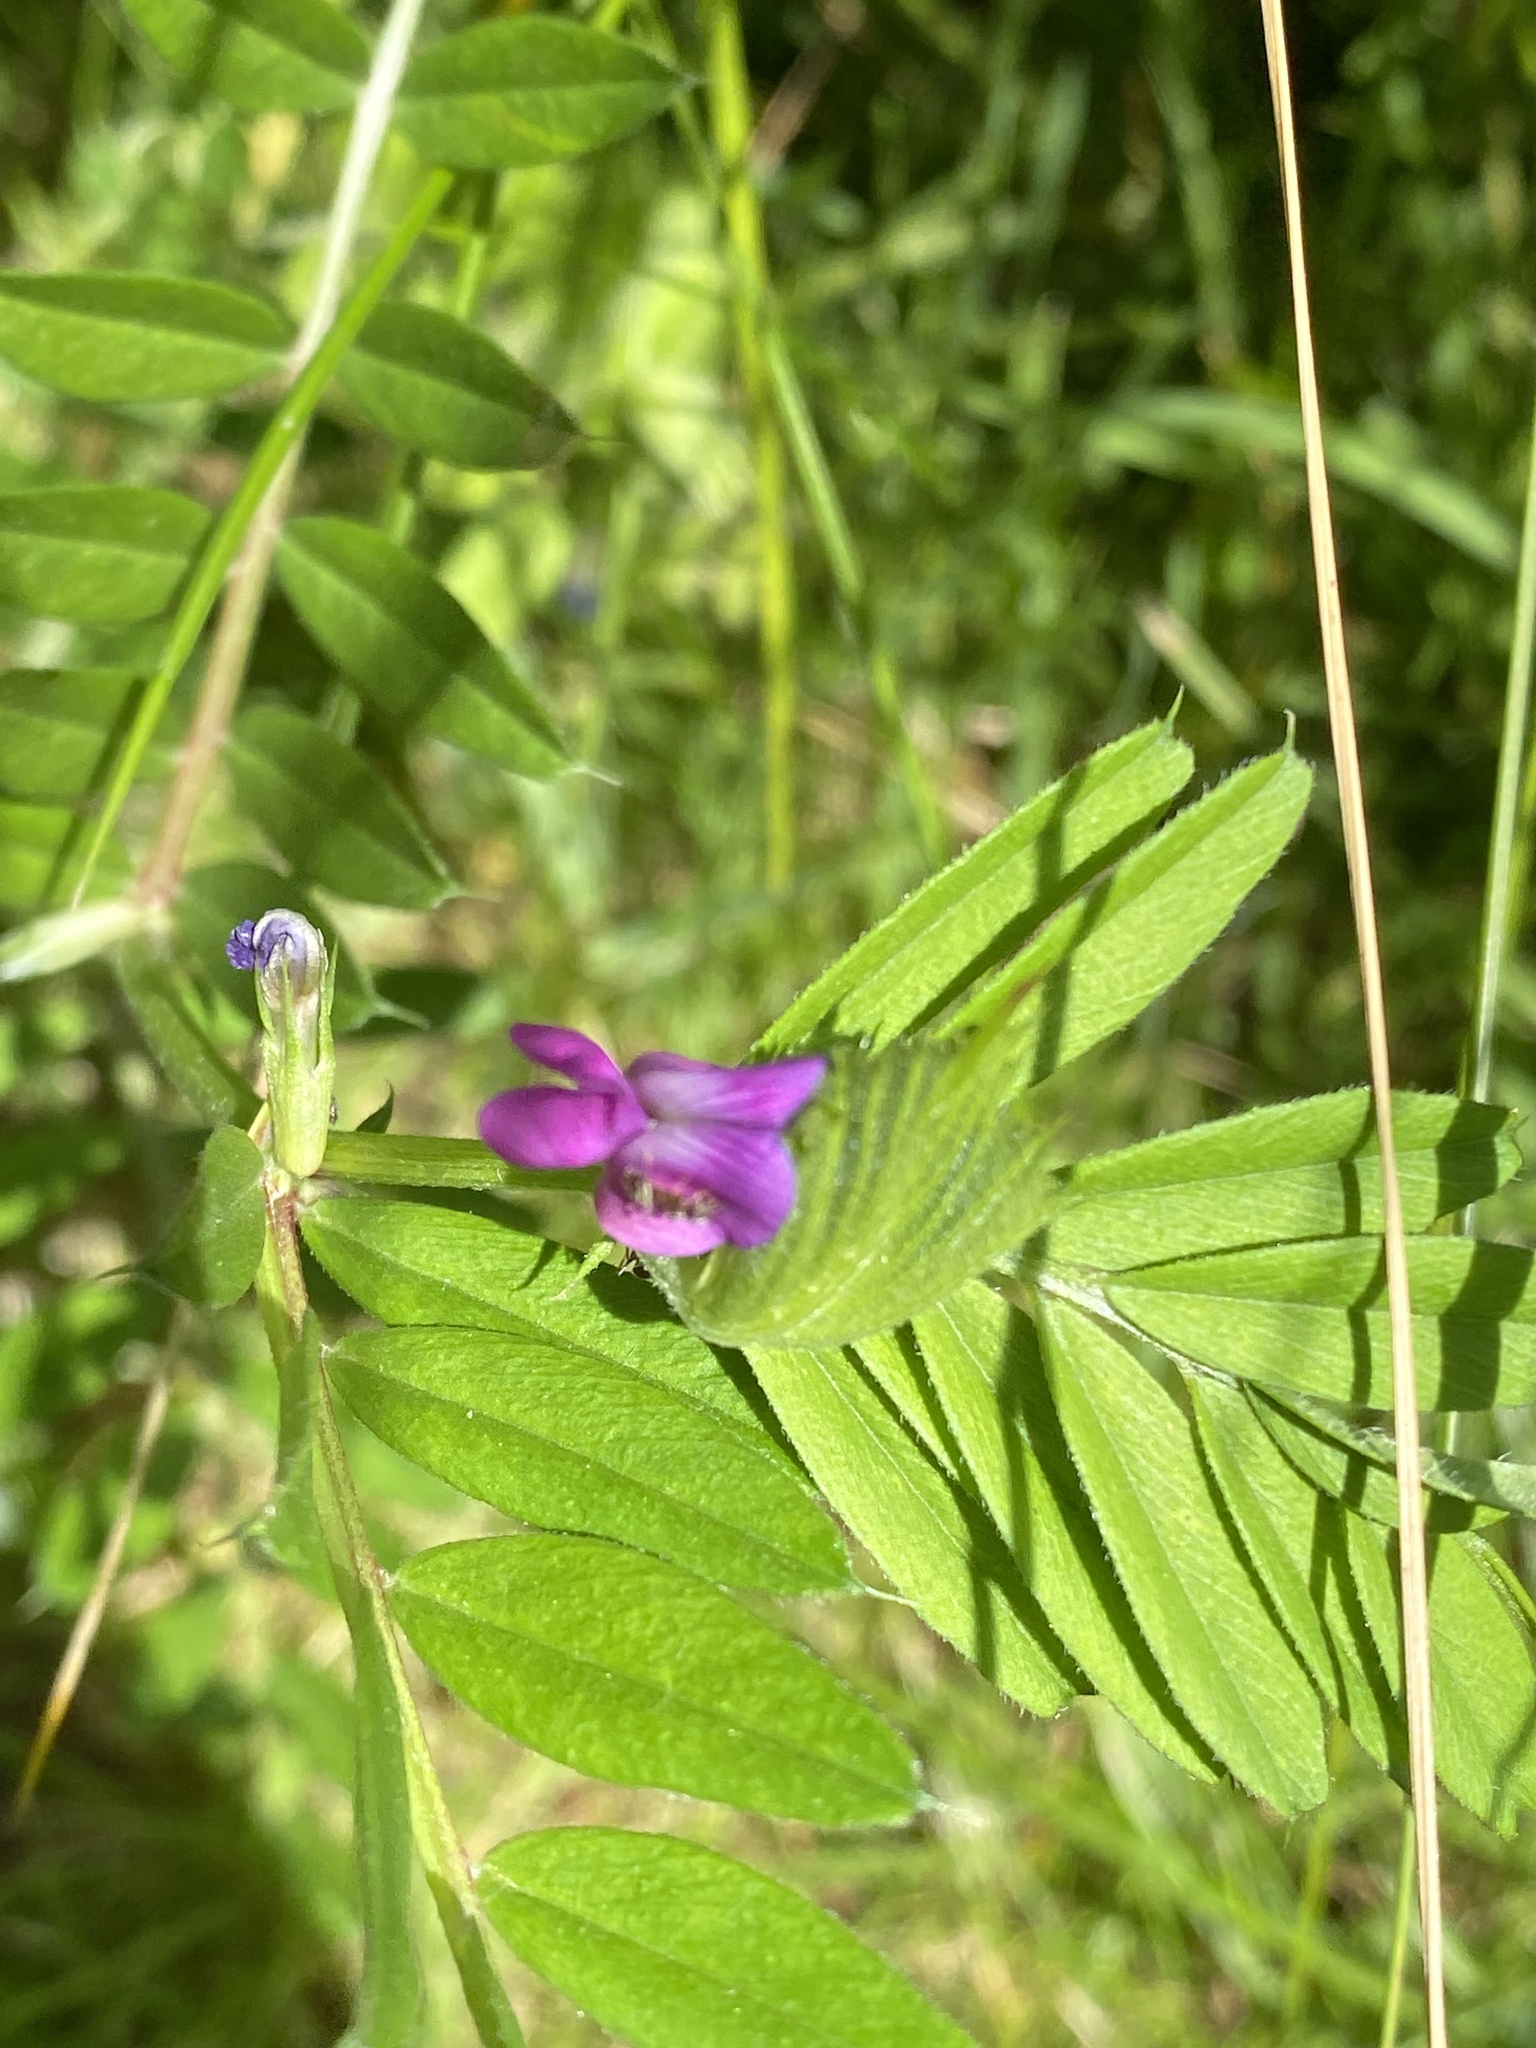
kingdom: Plantae
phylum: Tracheophyta
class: Magnoliopsida
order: Fabales
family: Fabaceae
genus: Vicia
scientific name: Vicia sativa
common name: Garden vetch
